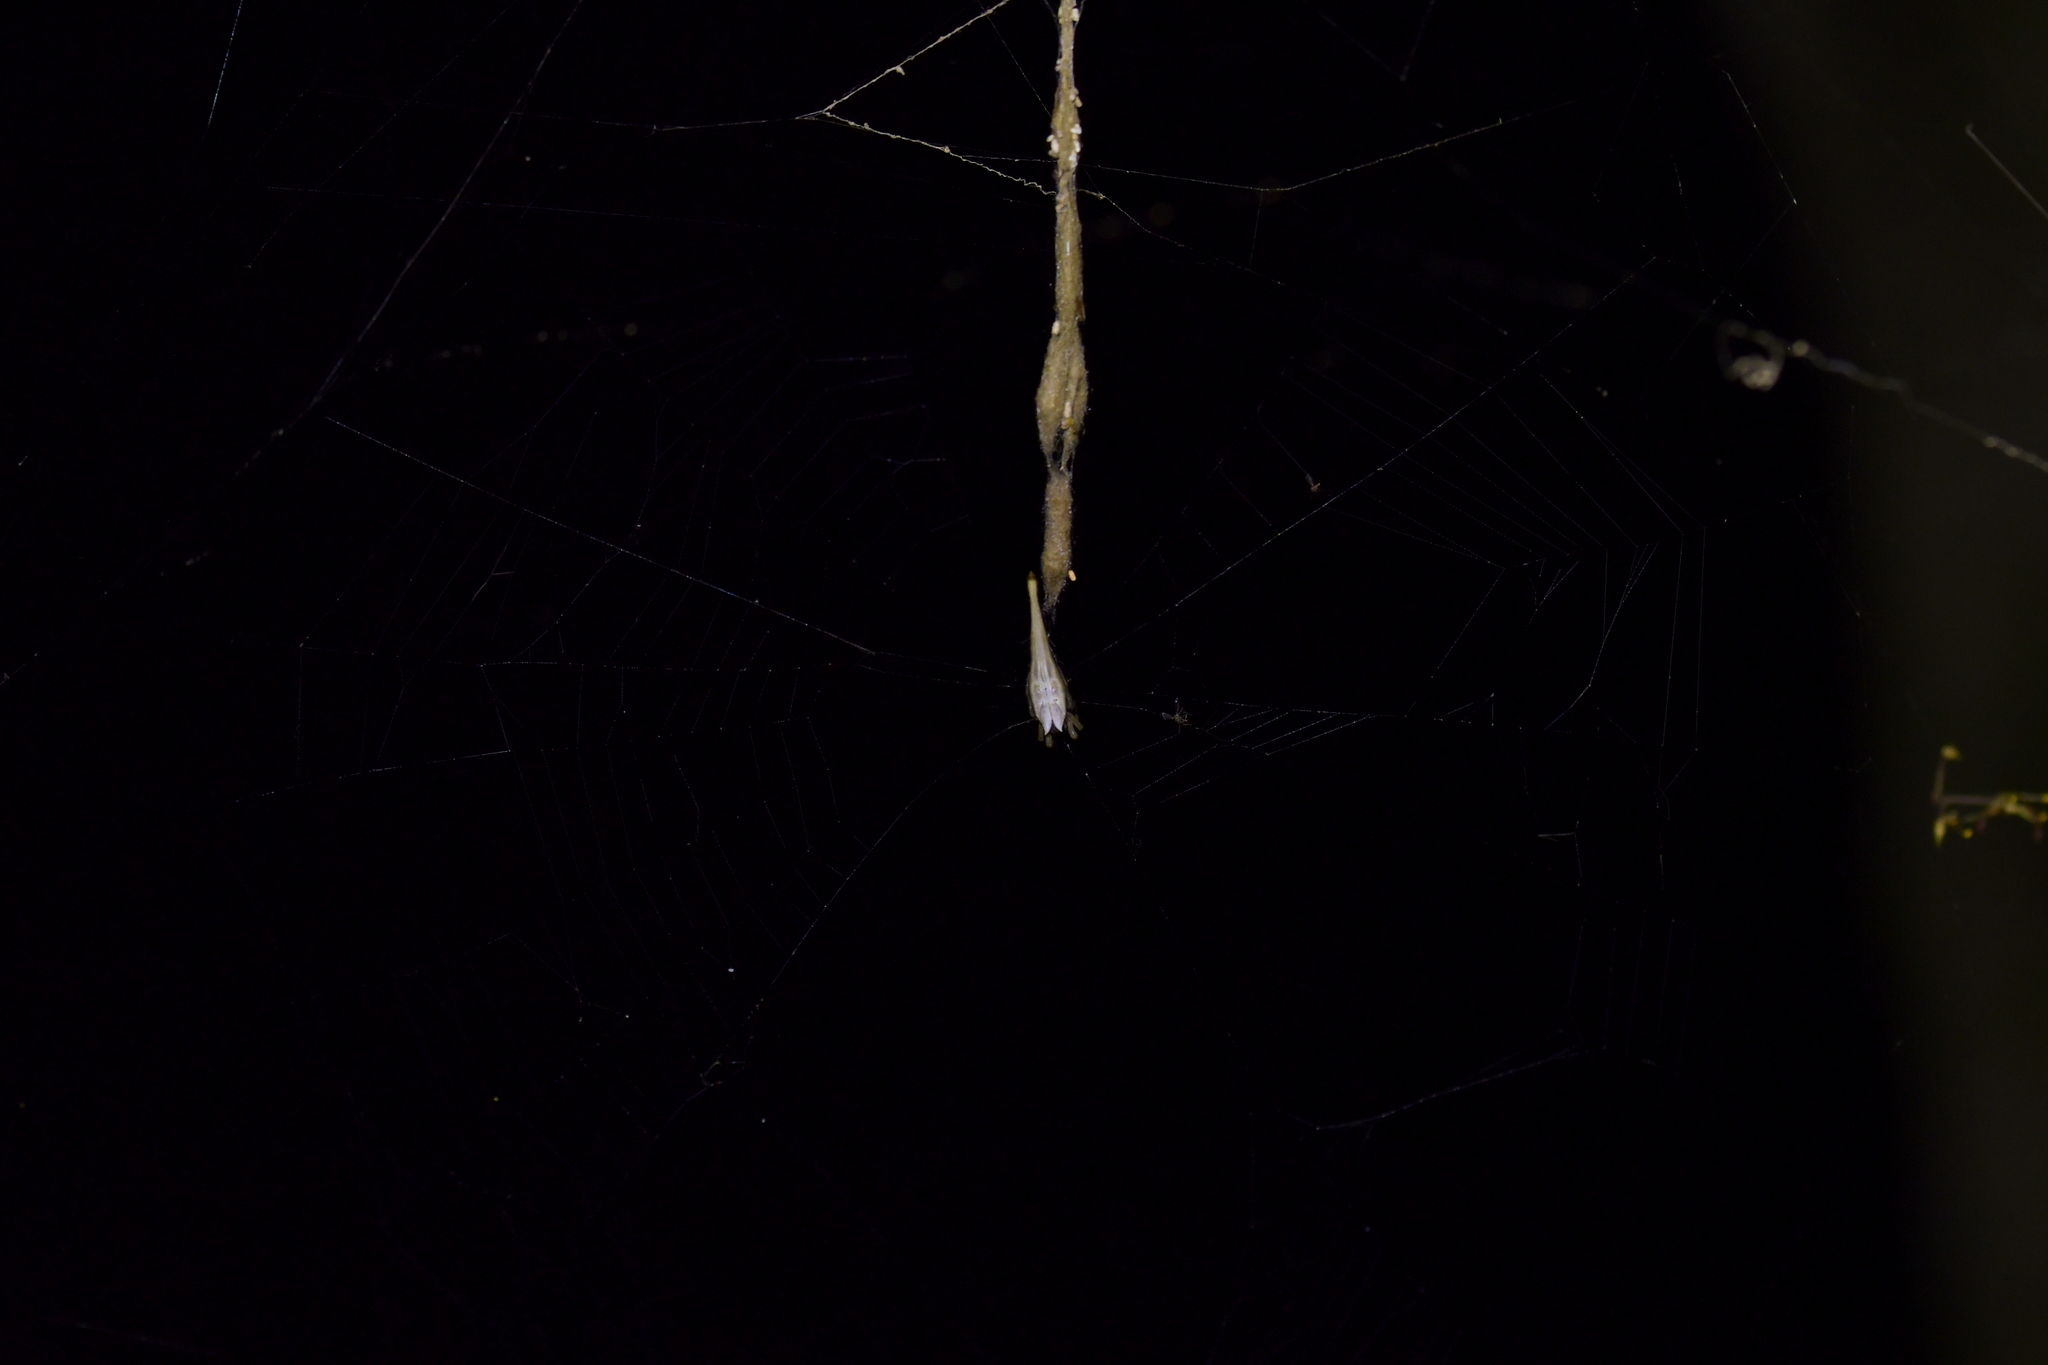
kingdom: Animalia
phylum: Arthropoda
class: Arachnida
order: Araneae
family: Araneidae
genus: Arachnura
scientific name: Arachnura feredayi
